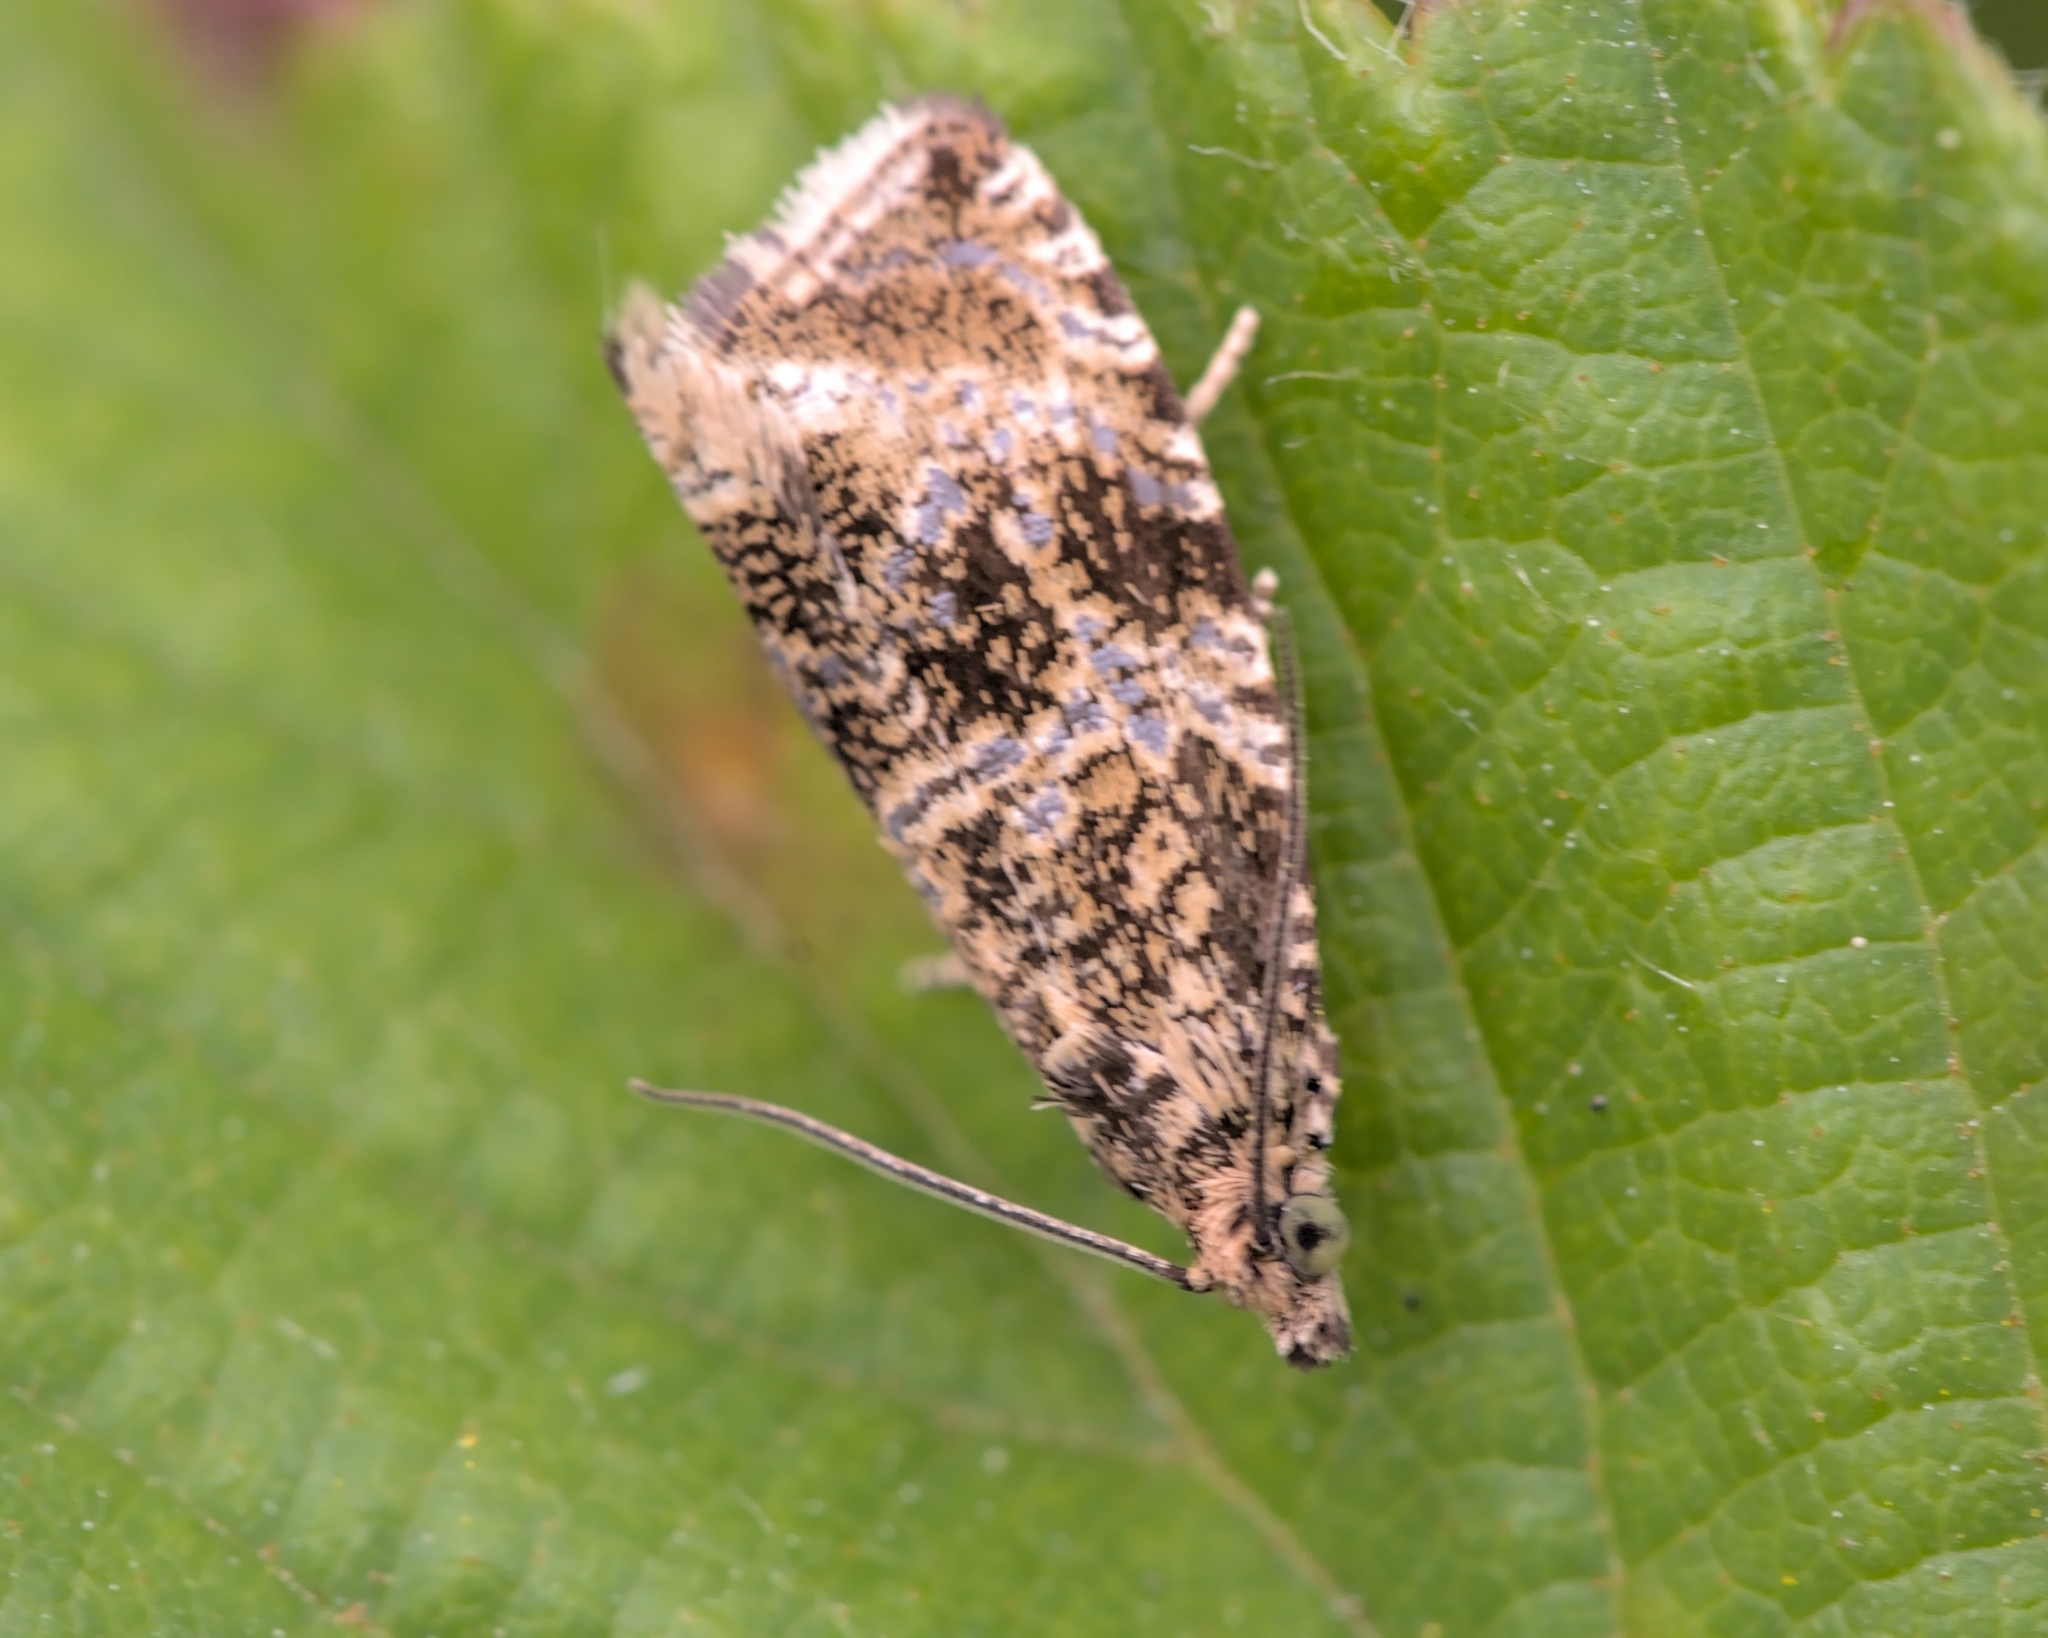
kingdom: Animalia
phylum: Arthropoda
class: Insecta
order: Lepidoptera
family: Tortricidae
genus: Syricoris
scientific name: Syricoris lacunana
